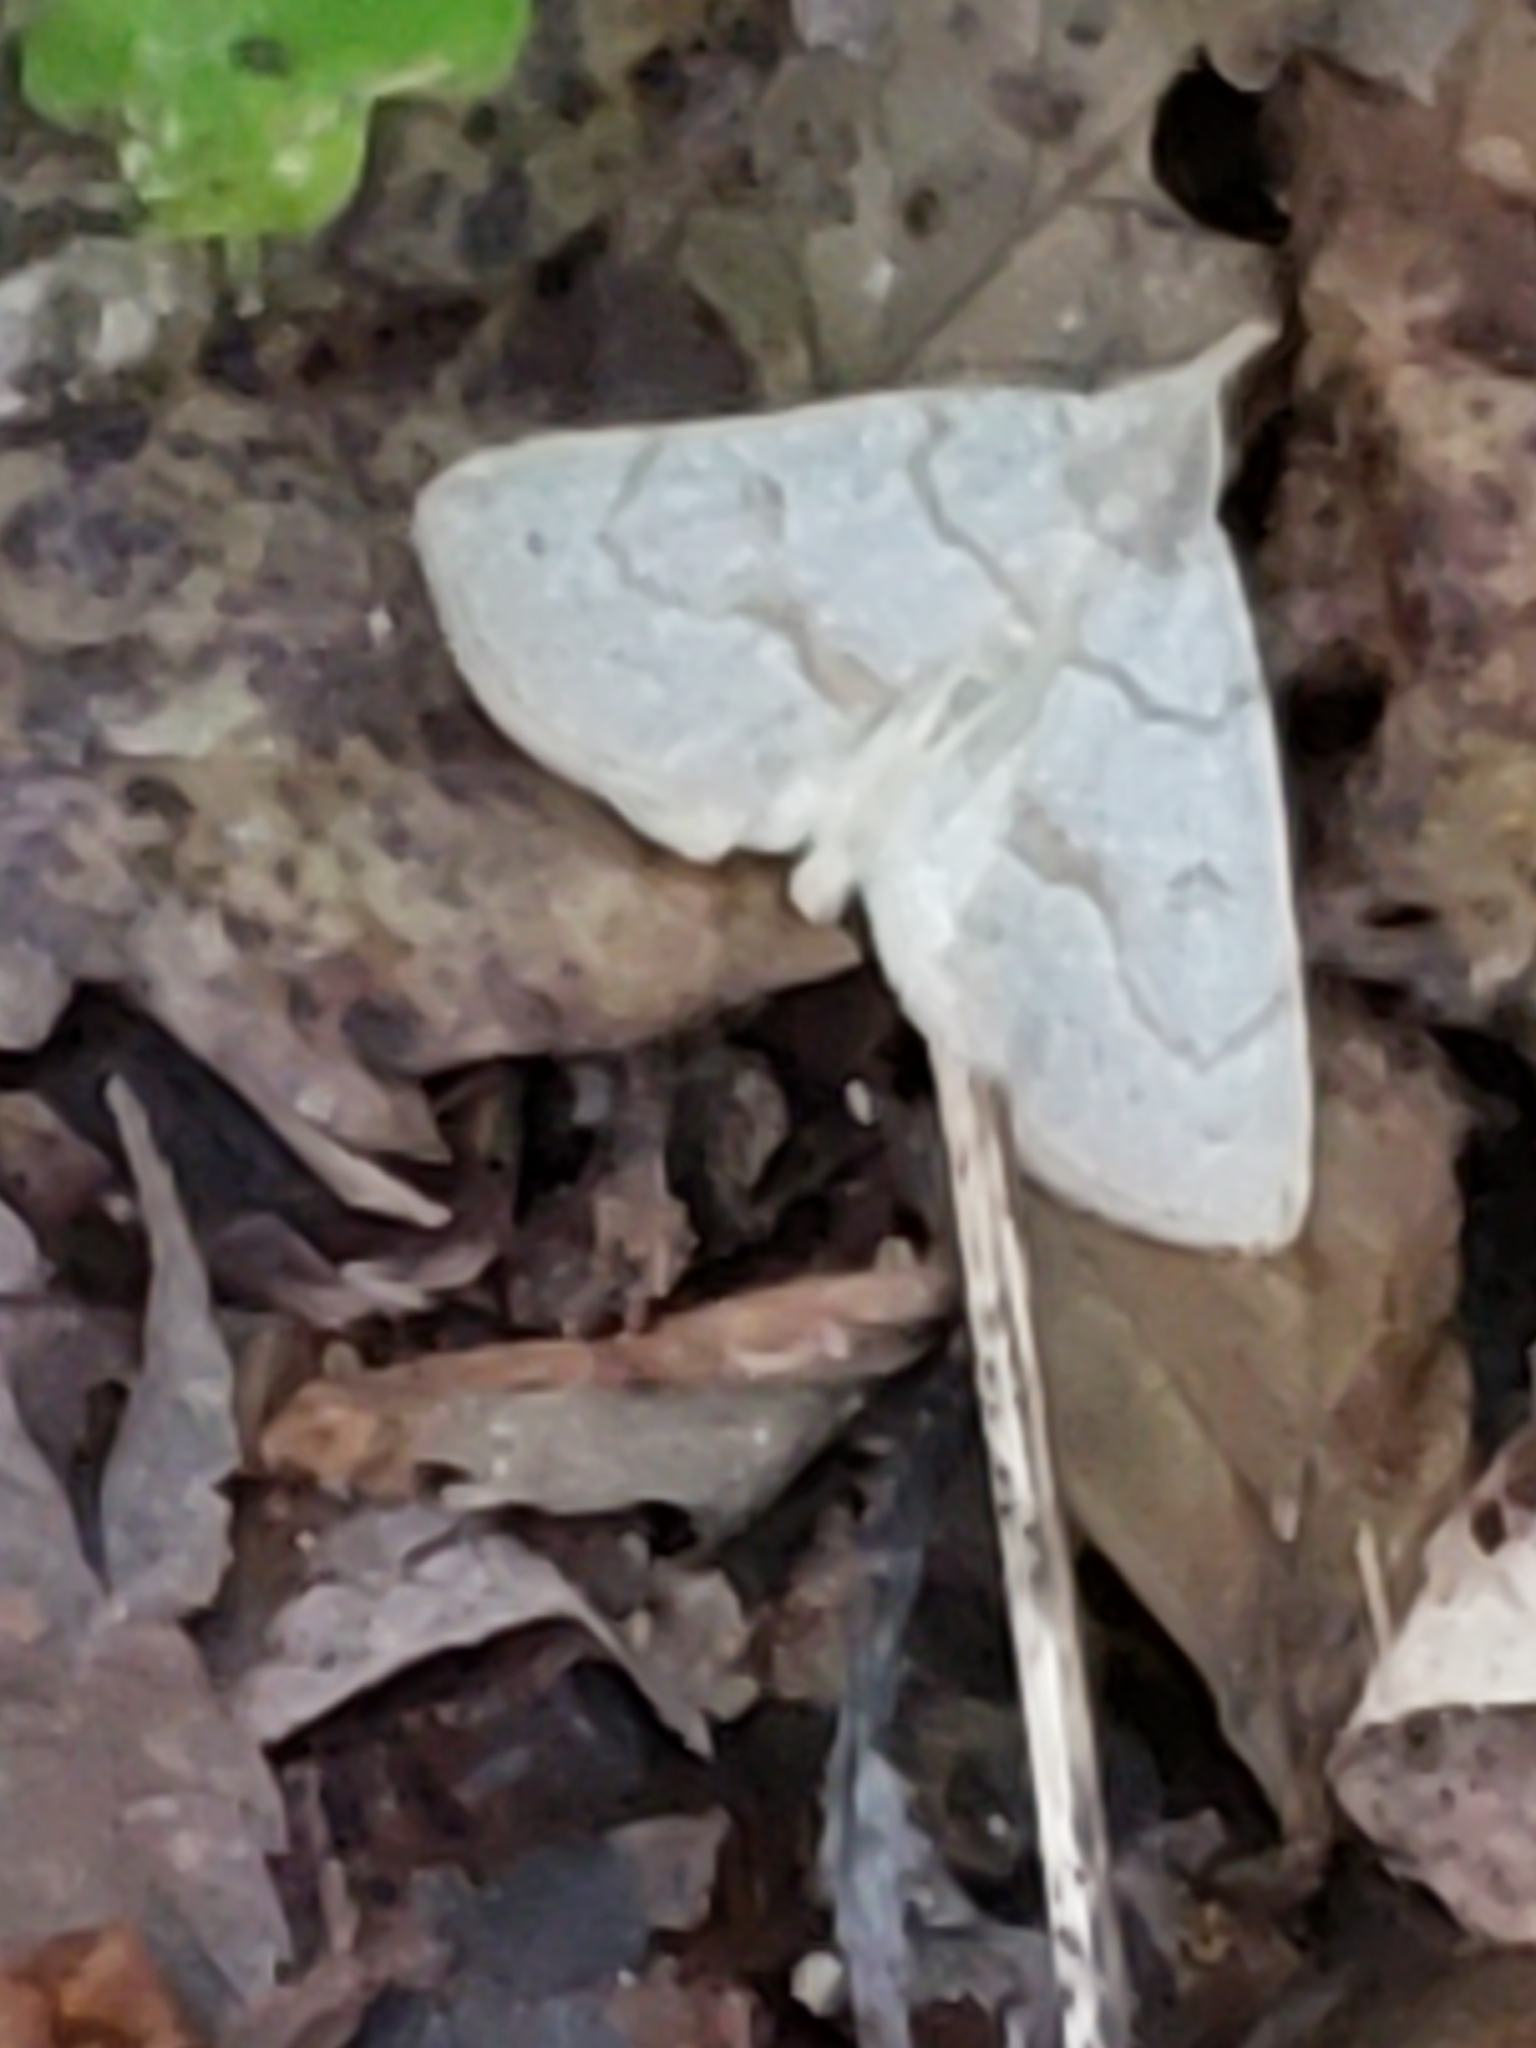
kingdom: Animalia
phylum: Arthropoda
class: Insecta
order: Lepidoptera
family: Erebidae
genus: Macrochilo
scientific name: Macrochilo morbidalis
